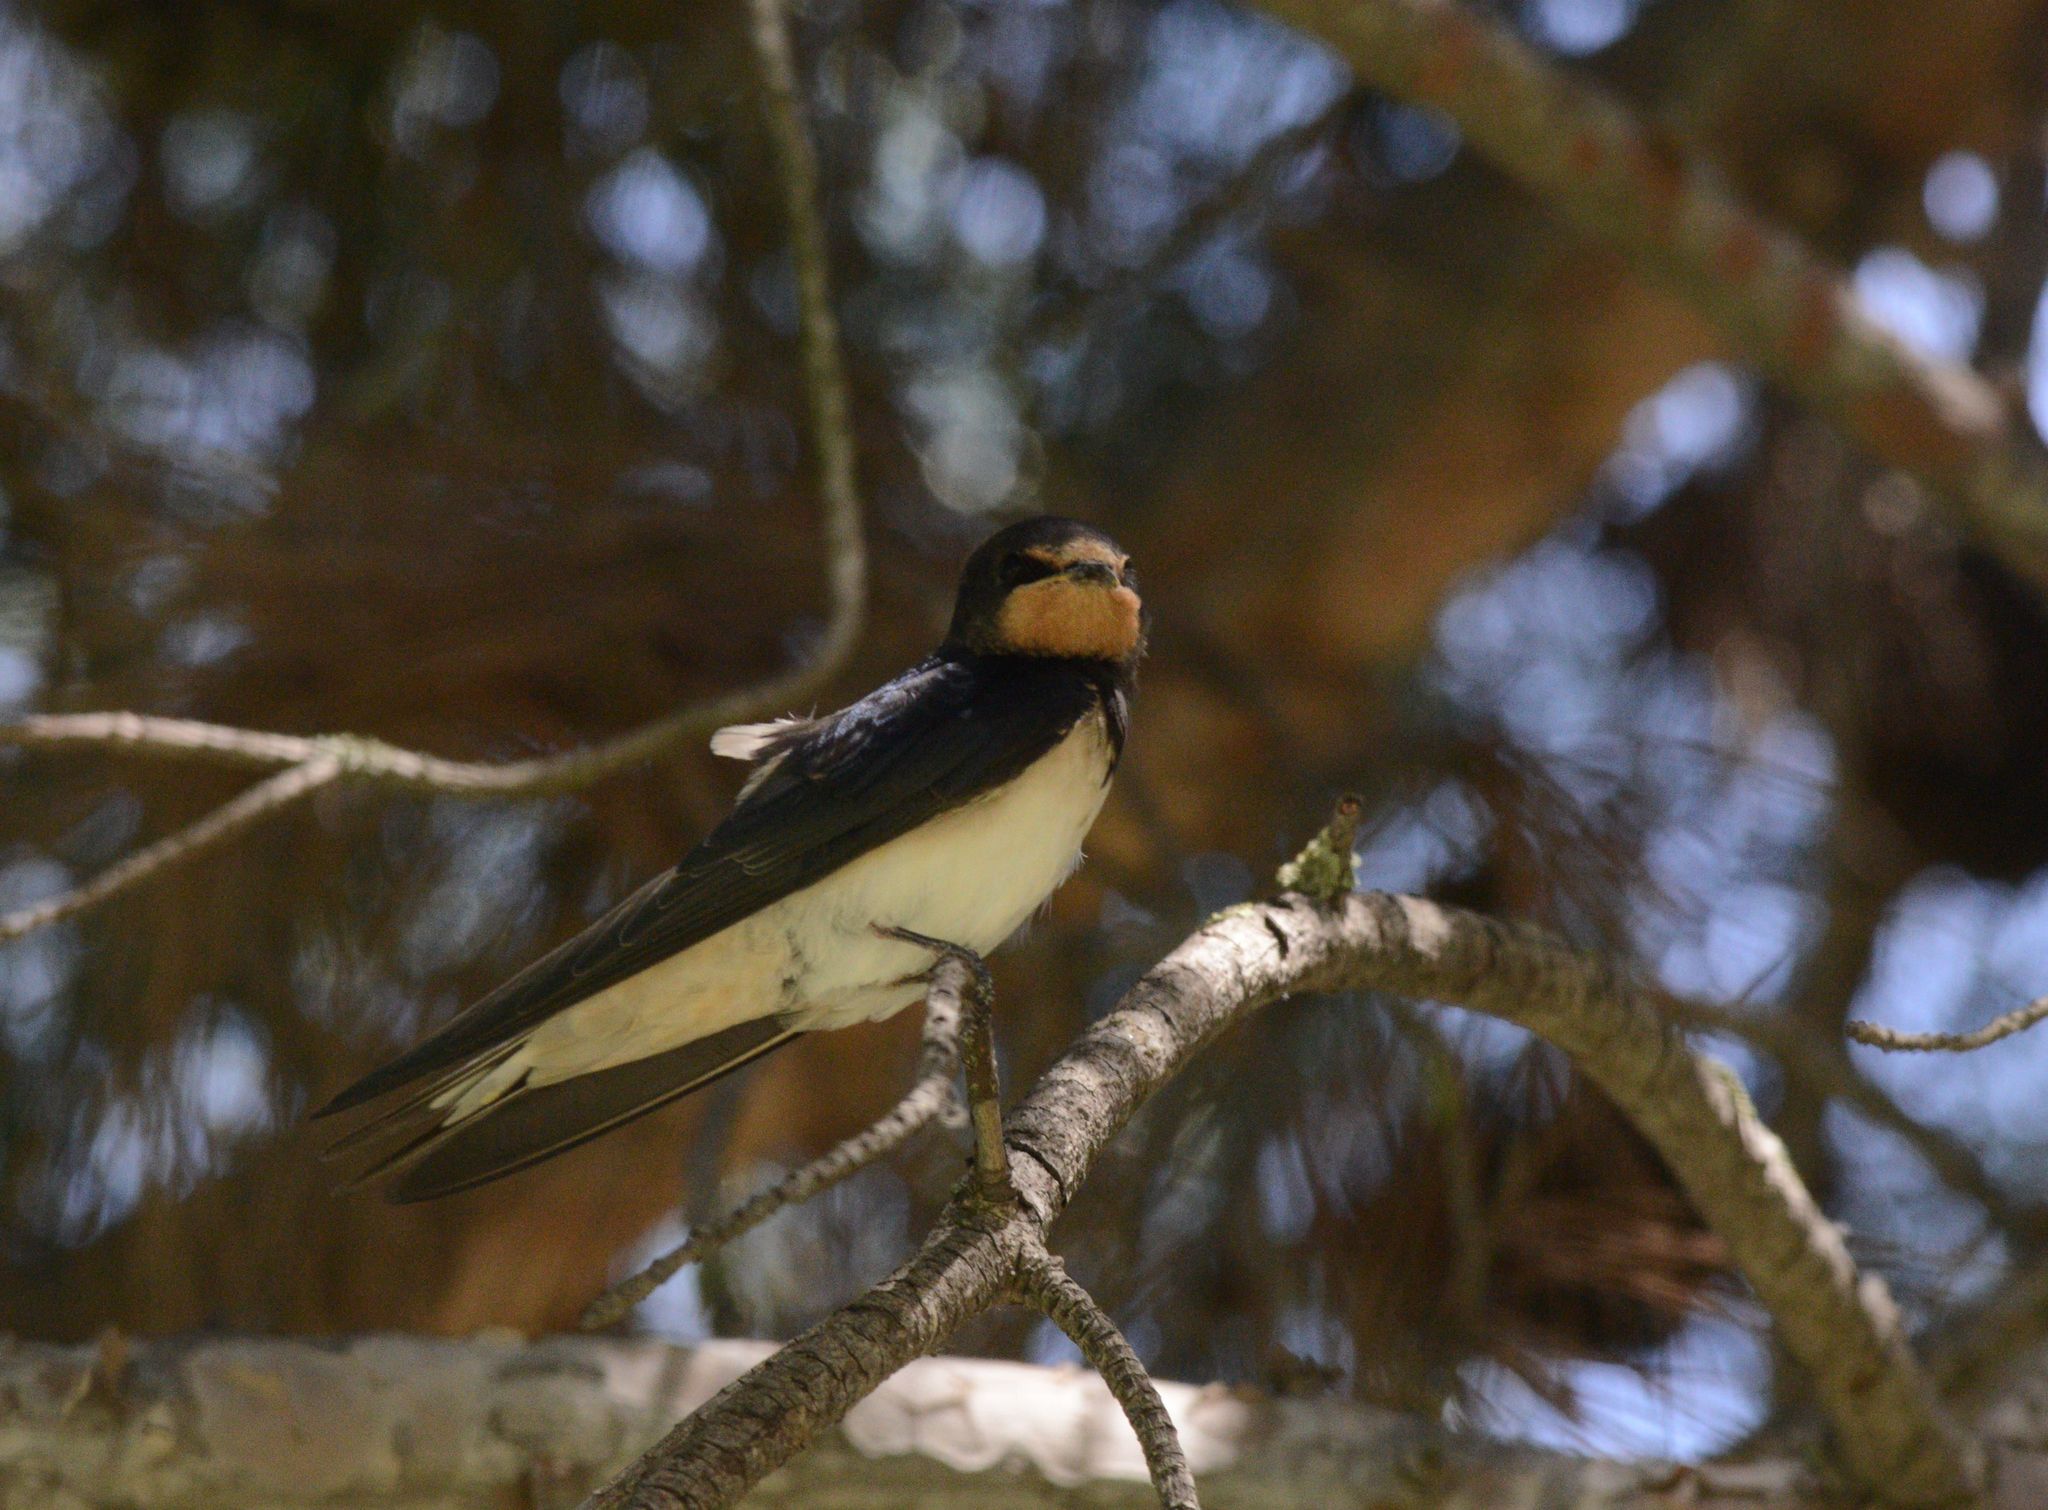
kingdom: Animalia
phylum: Chordata
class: Aves
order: Passeriformes
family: Hirundinidae
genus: Hirundo
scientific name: Hirundo rustica
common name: Barn swallow
